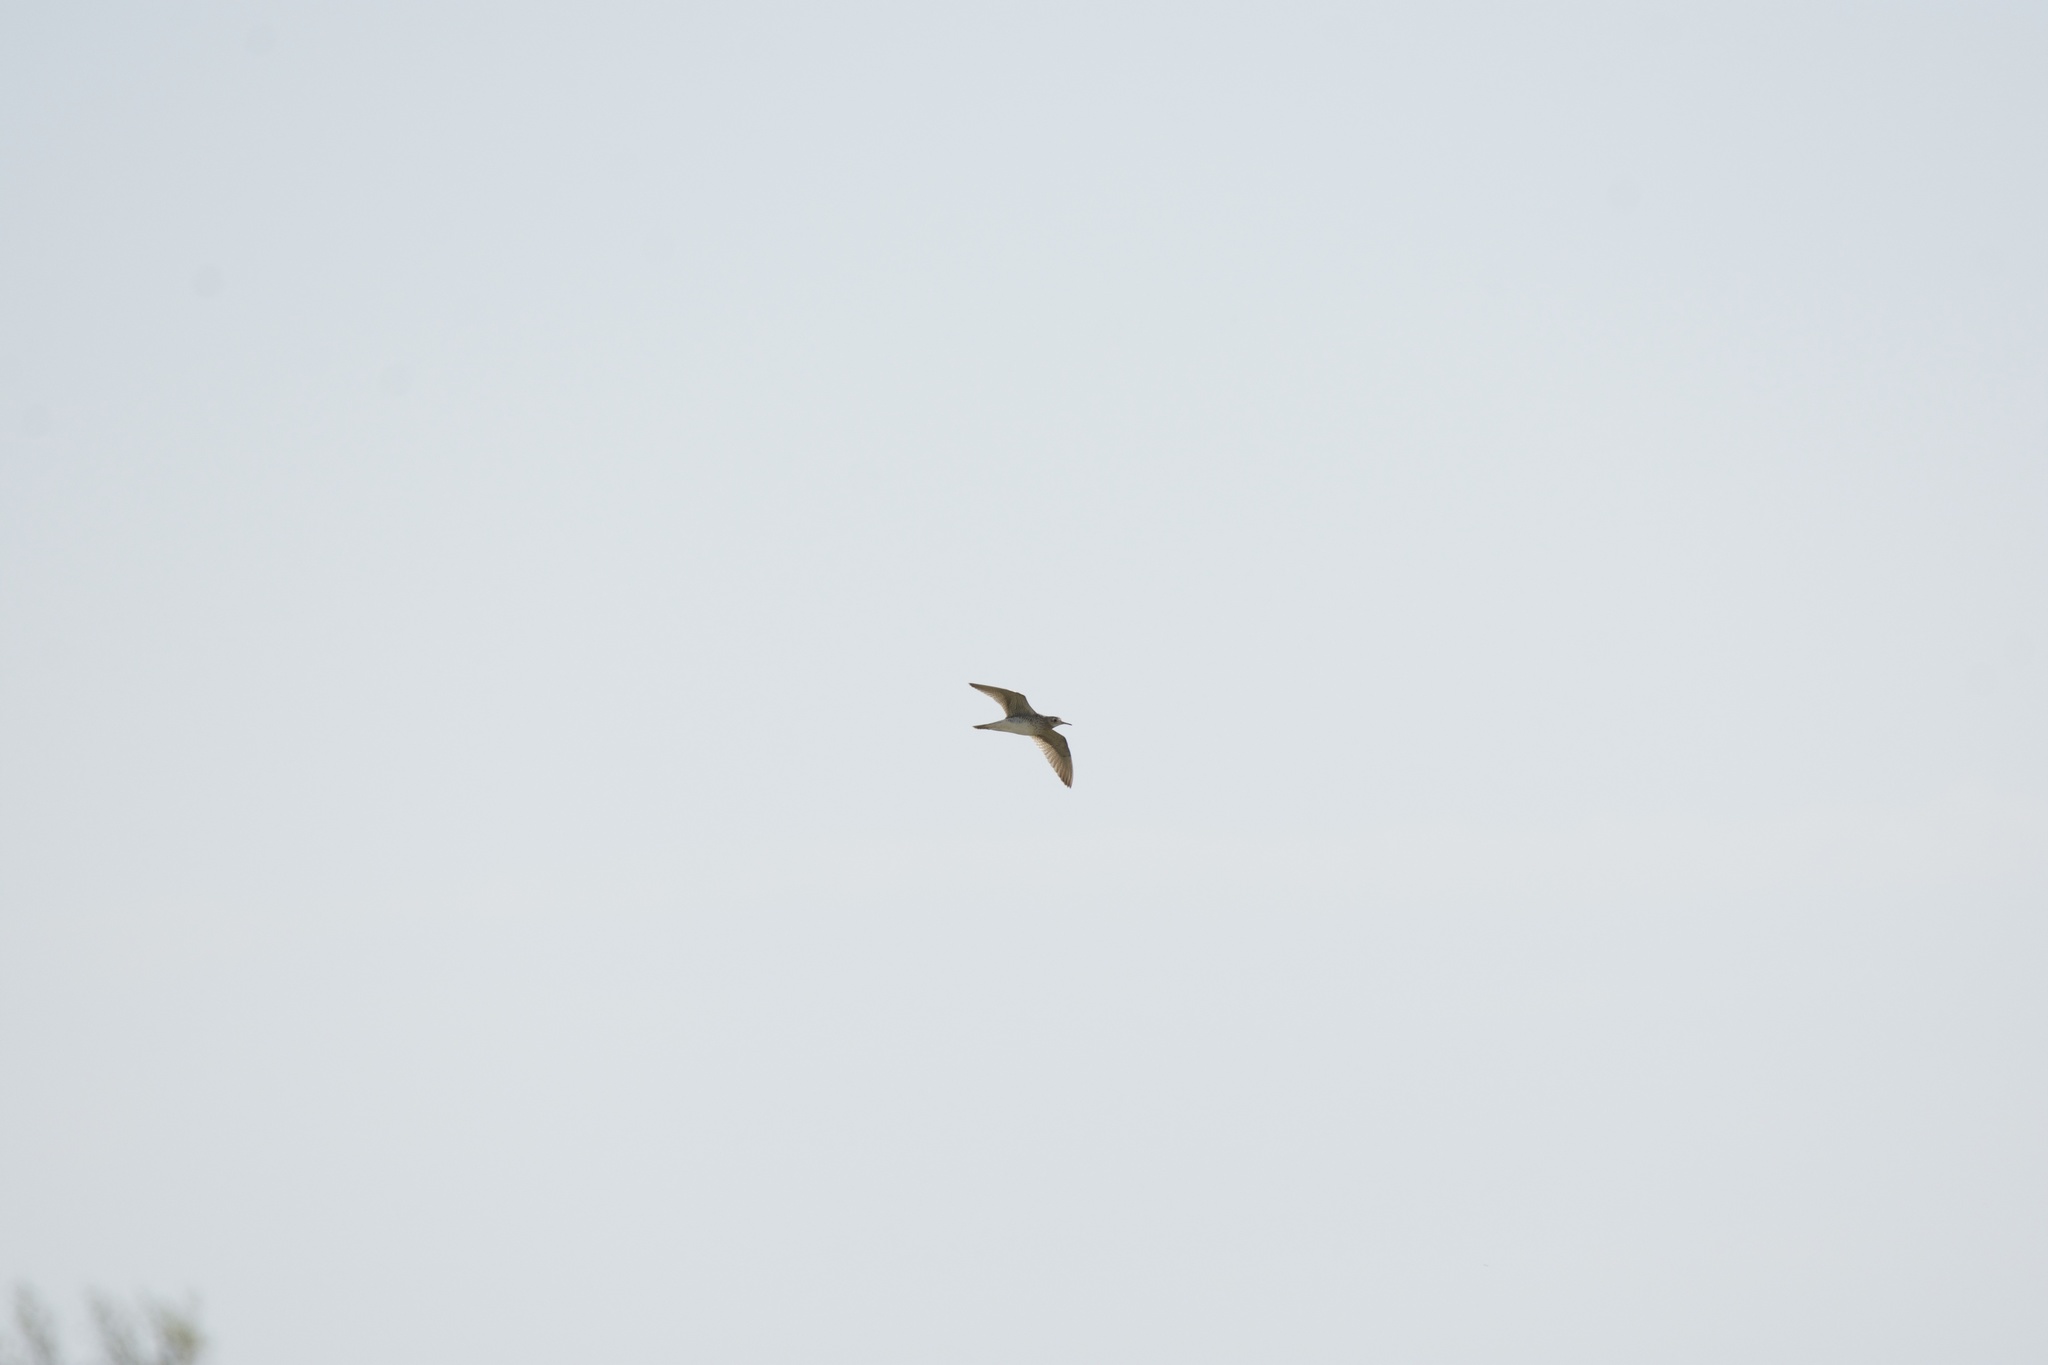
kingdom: Animalia
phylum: Chordata
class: Aves
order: Charadriiformes
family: Scolopacidae
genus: Bartramia
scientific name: Bartramia longicauda
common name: Upland sandpiper
